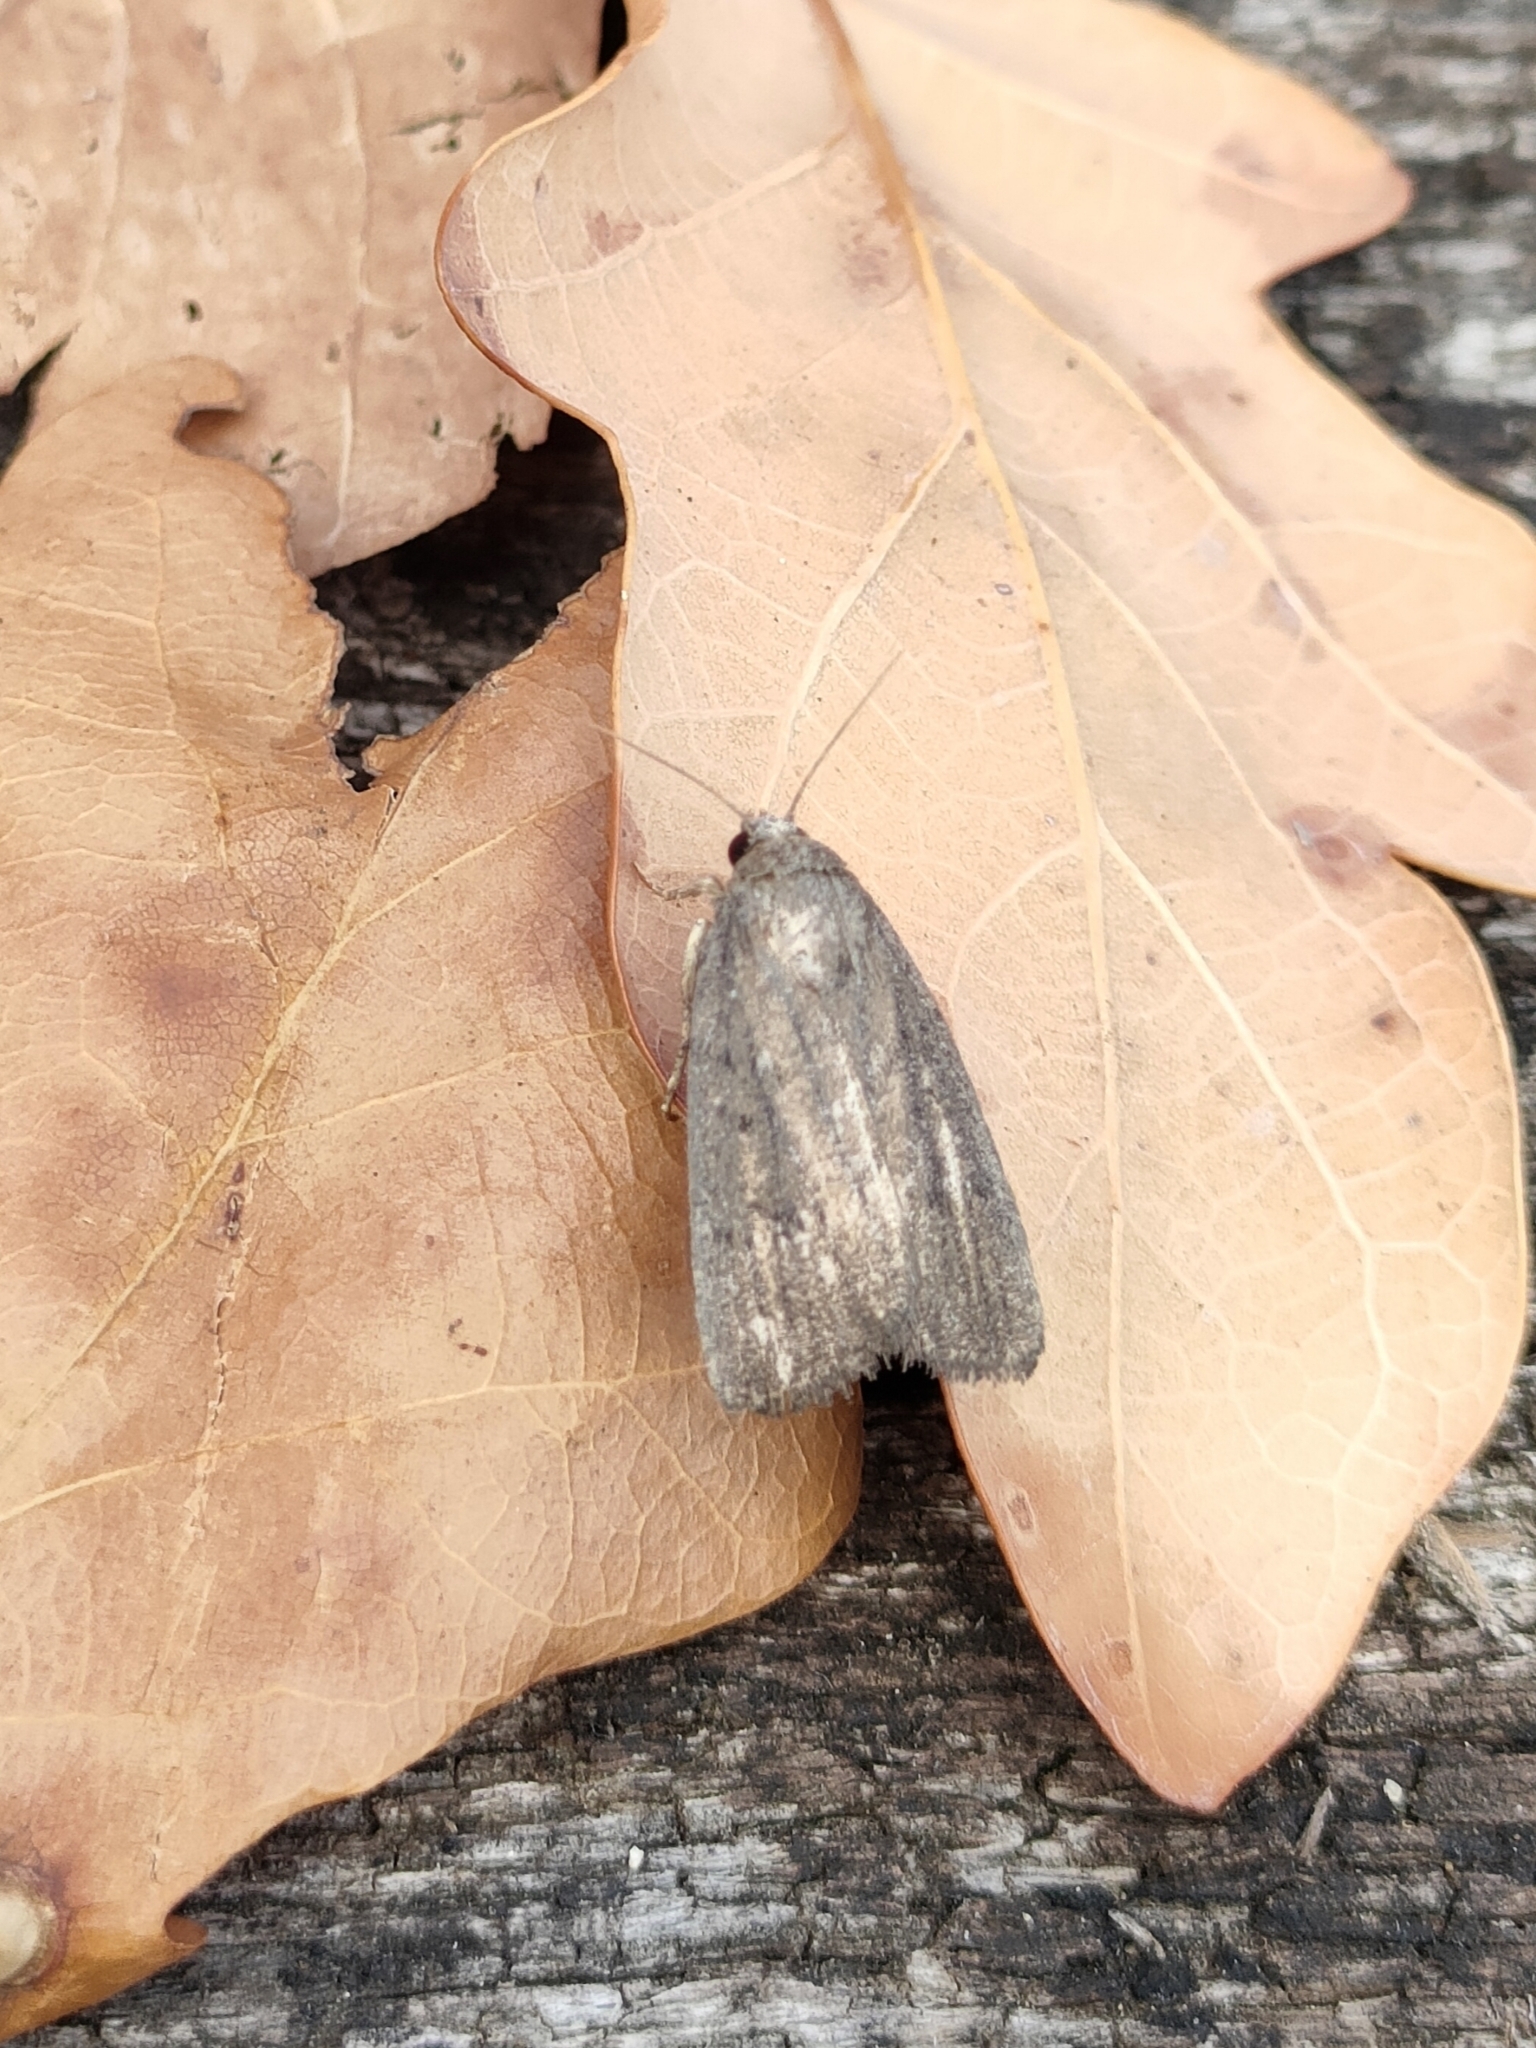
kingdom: Animalia
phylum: Arthropoda
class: Insecta
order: Lepidoptera
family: Noctuidae
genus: Athetis
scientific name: Athetis hospes
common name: Porter's rustic
